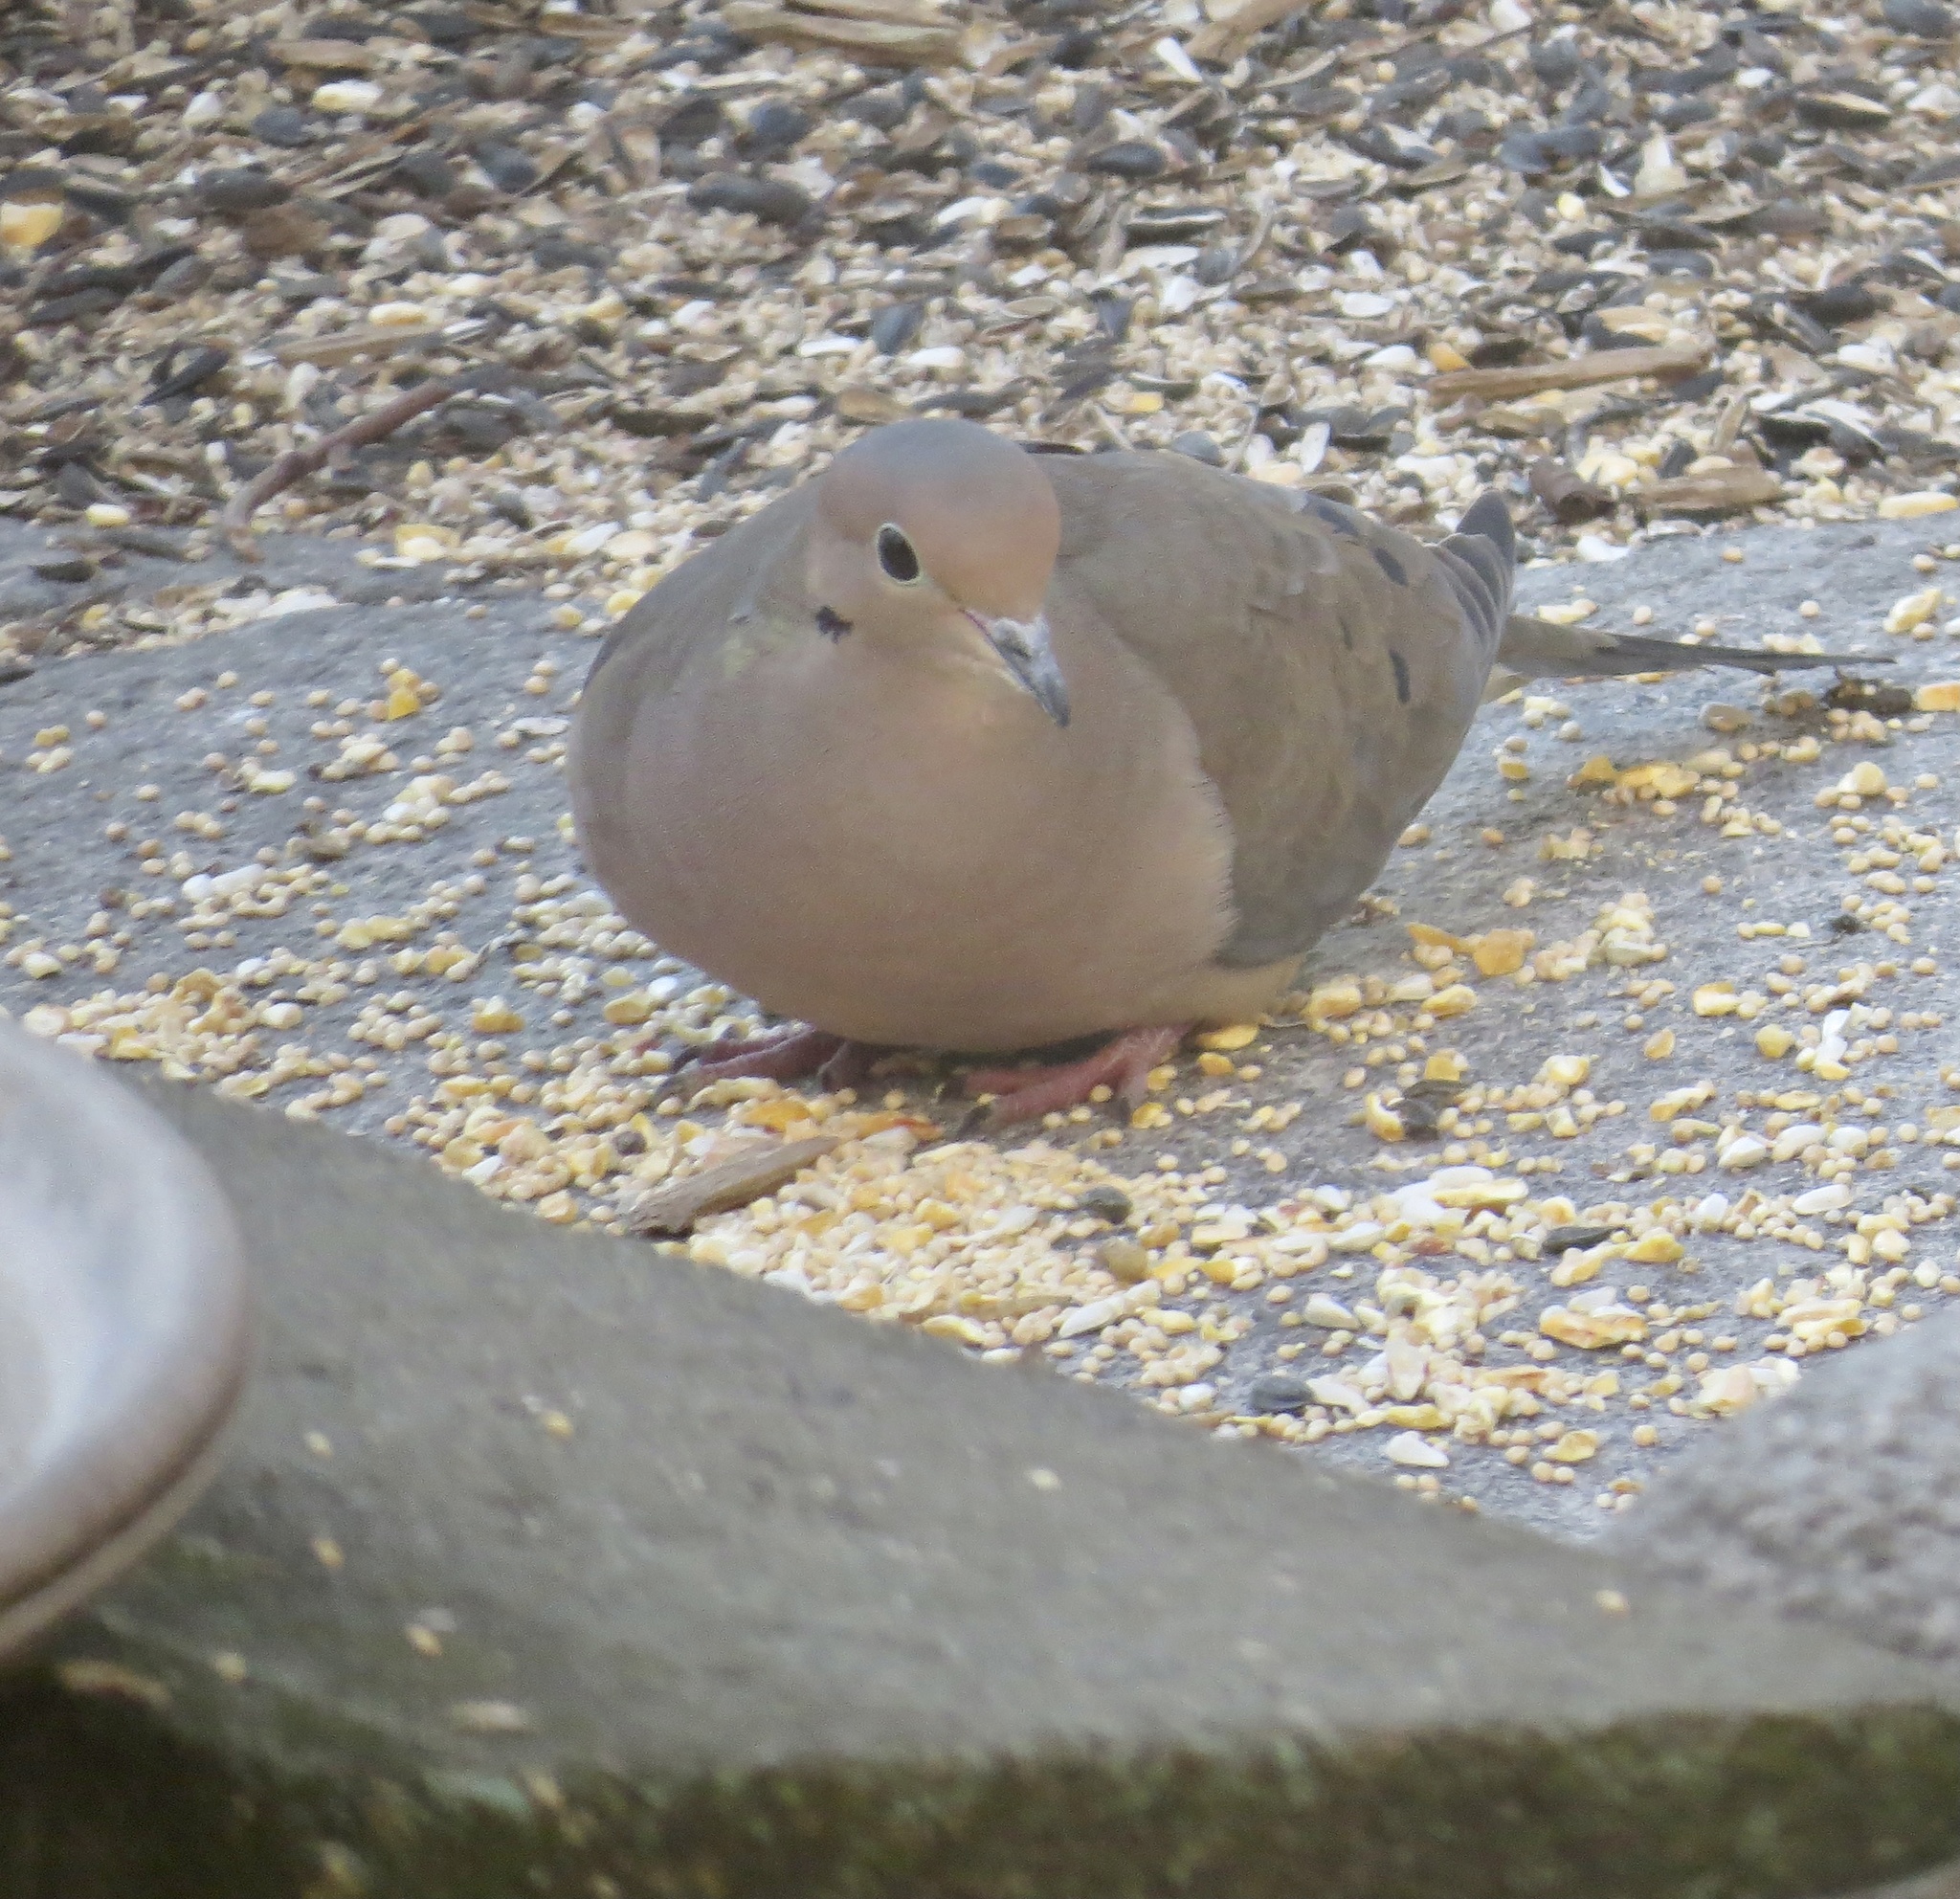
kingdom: Animalia
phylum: Chordata
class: Aves
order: Columbiformes
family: Columbidae
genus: Zenaida
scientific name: Zenaida macroura
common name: Mourning dove
